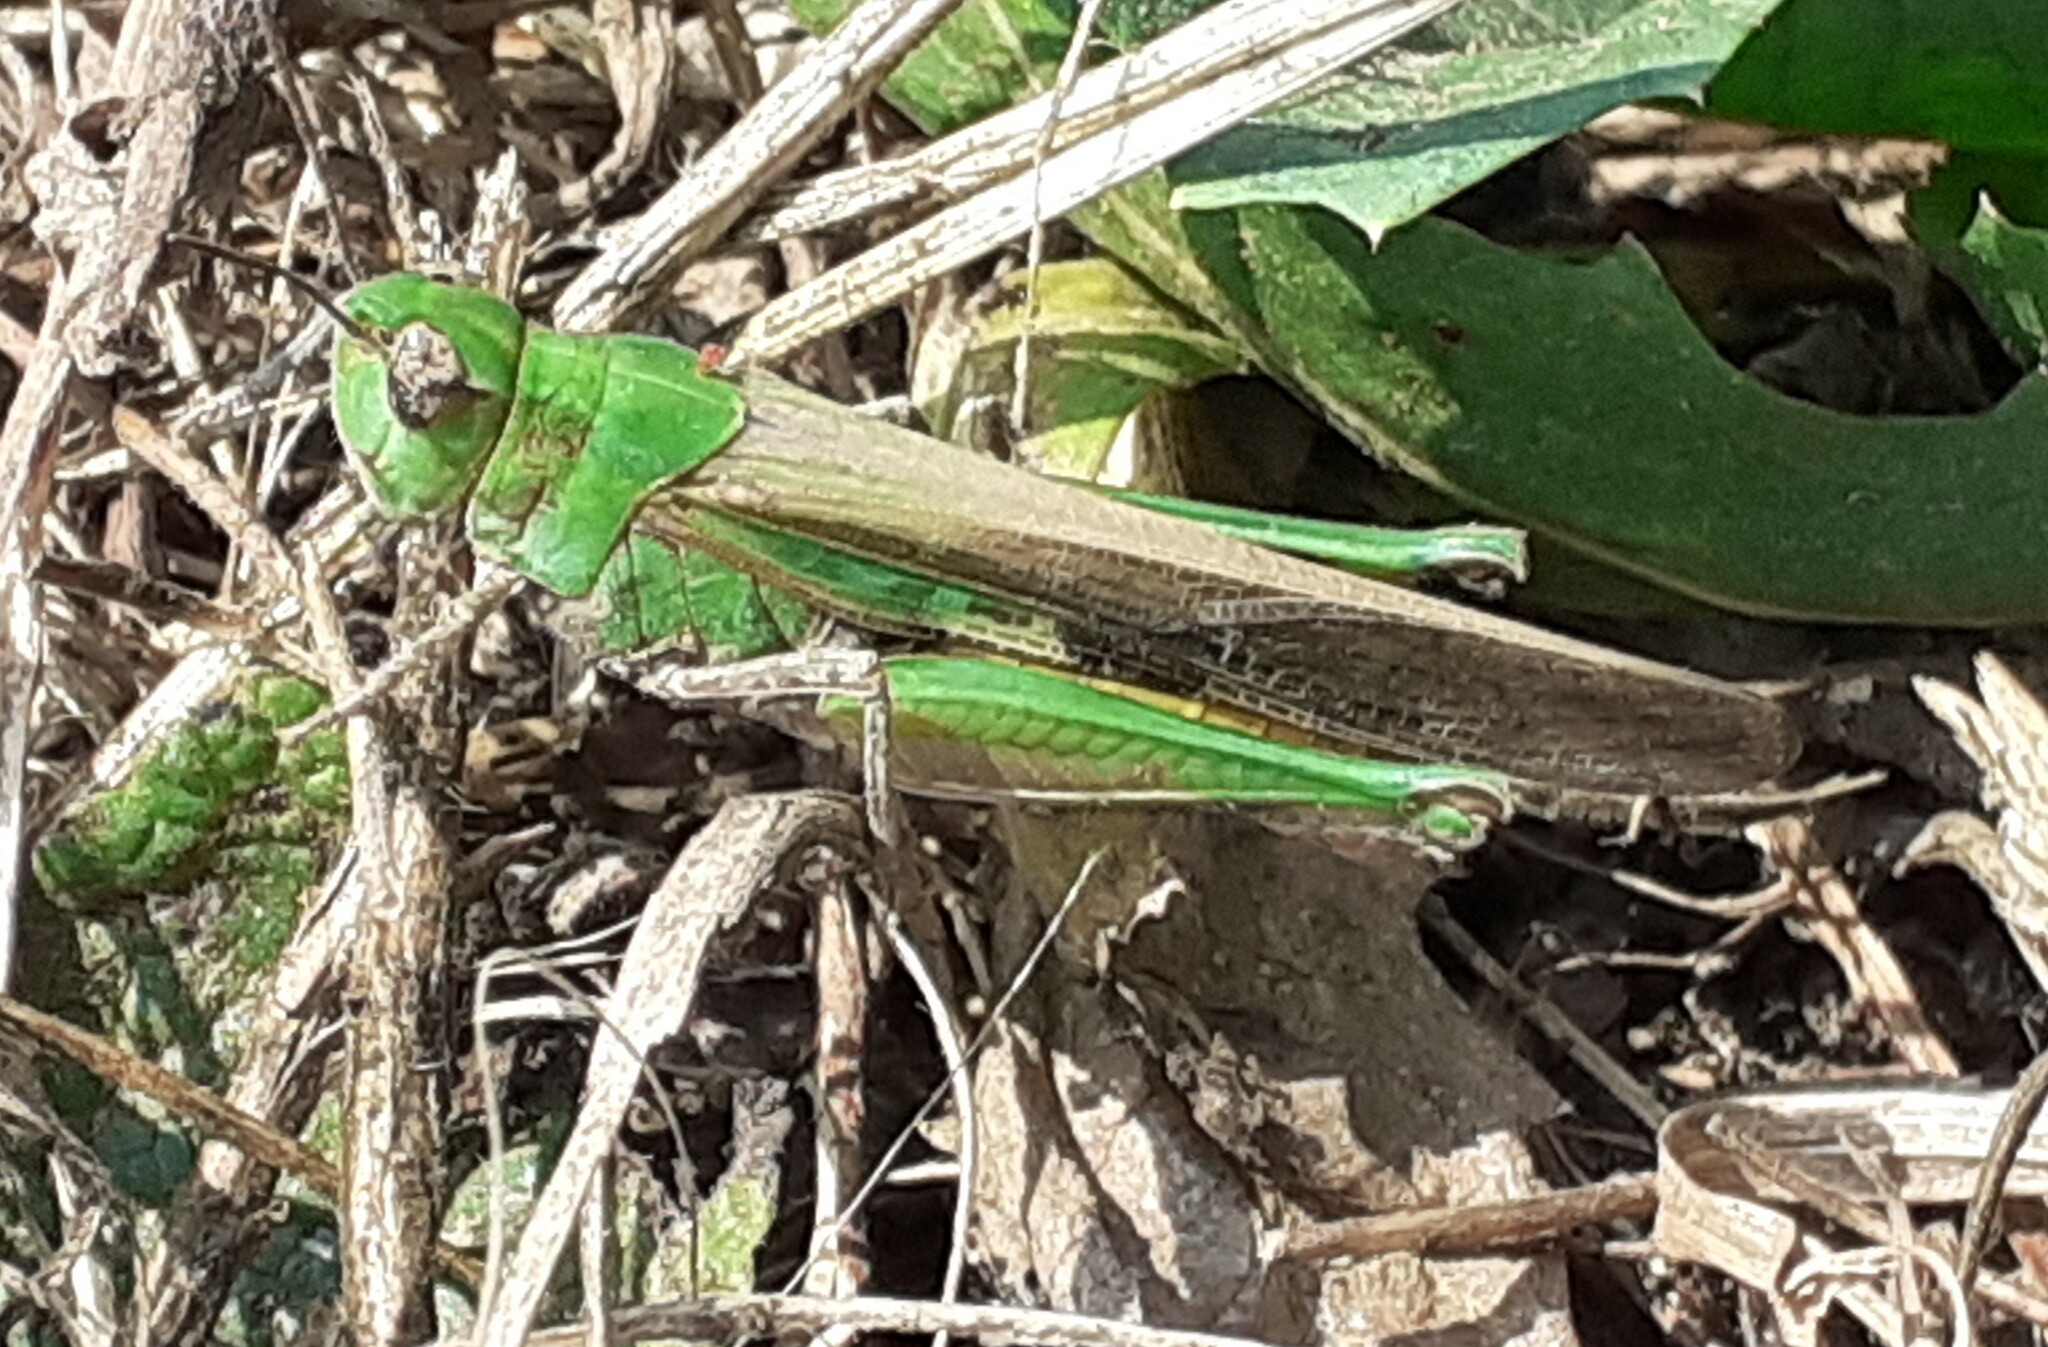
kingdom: Animalia
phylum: Arthropoda
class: Insecta
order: Orthoptera
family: Acrididae
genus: Aiolopus
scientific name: Aiolopus puissanti
